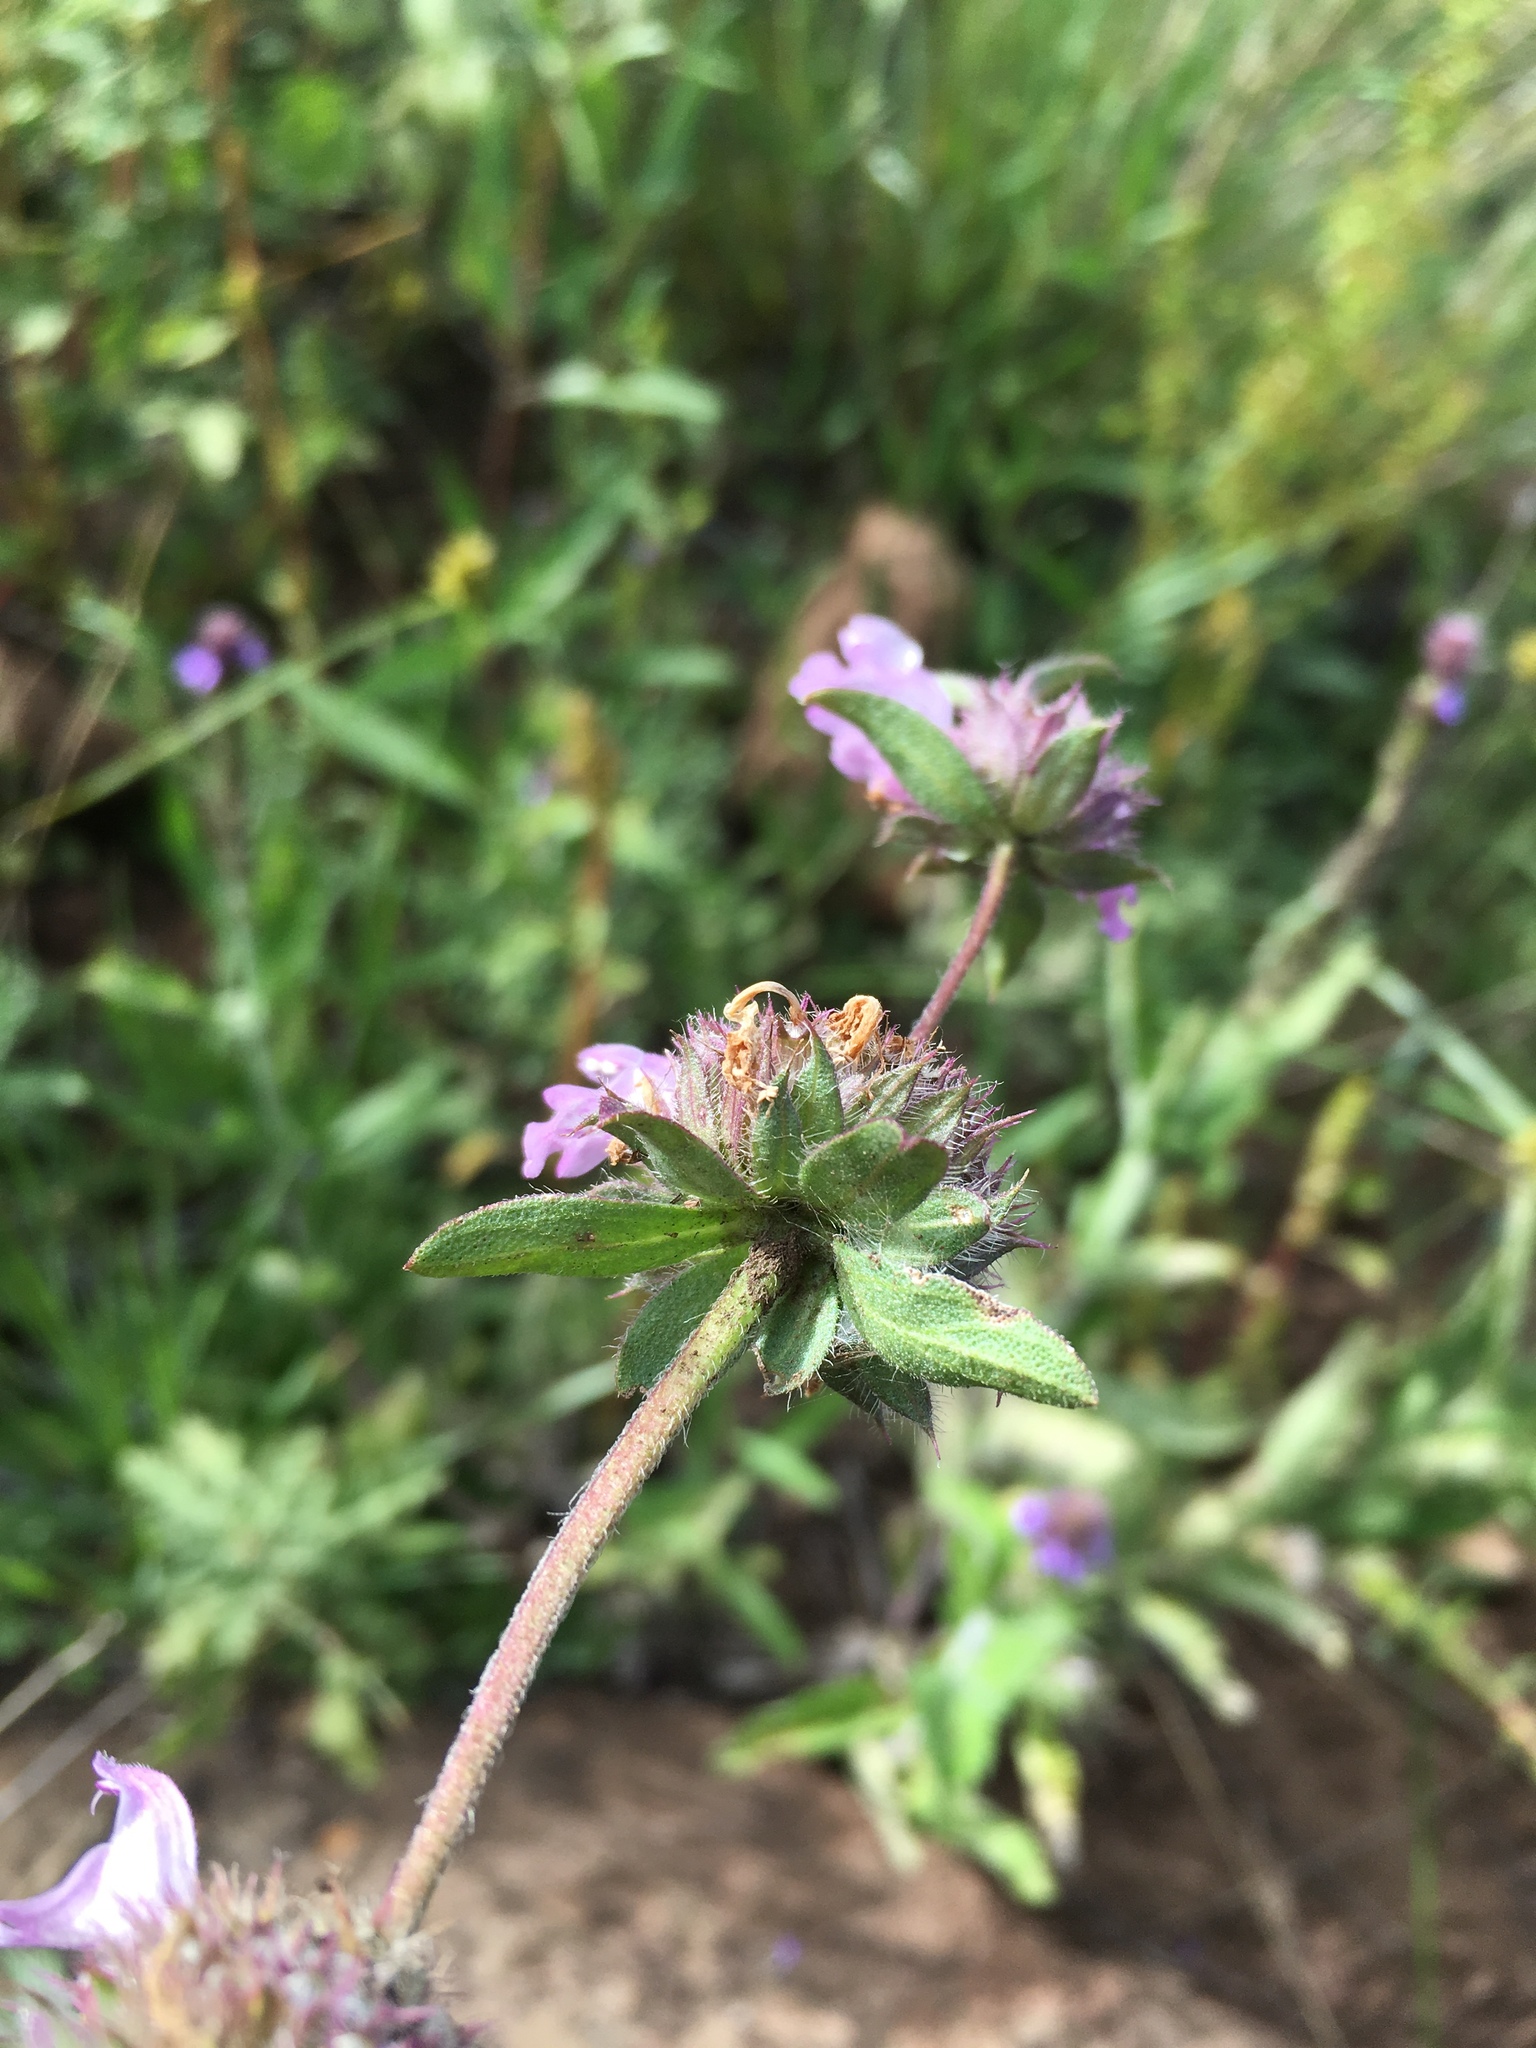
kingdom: Plantae
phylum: Tracheophyta
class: Magnoliopsida
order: Lamiales
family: Lamiaceae
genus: Monarda
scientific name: Monarda pectinata
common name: Plains beebalm
